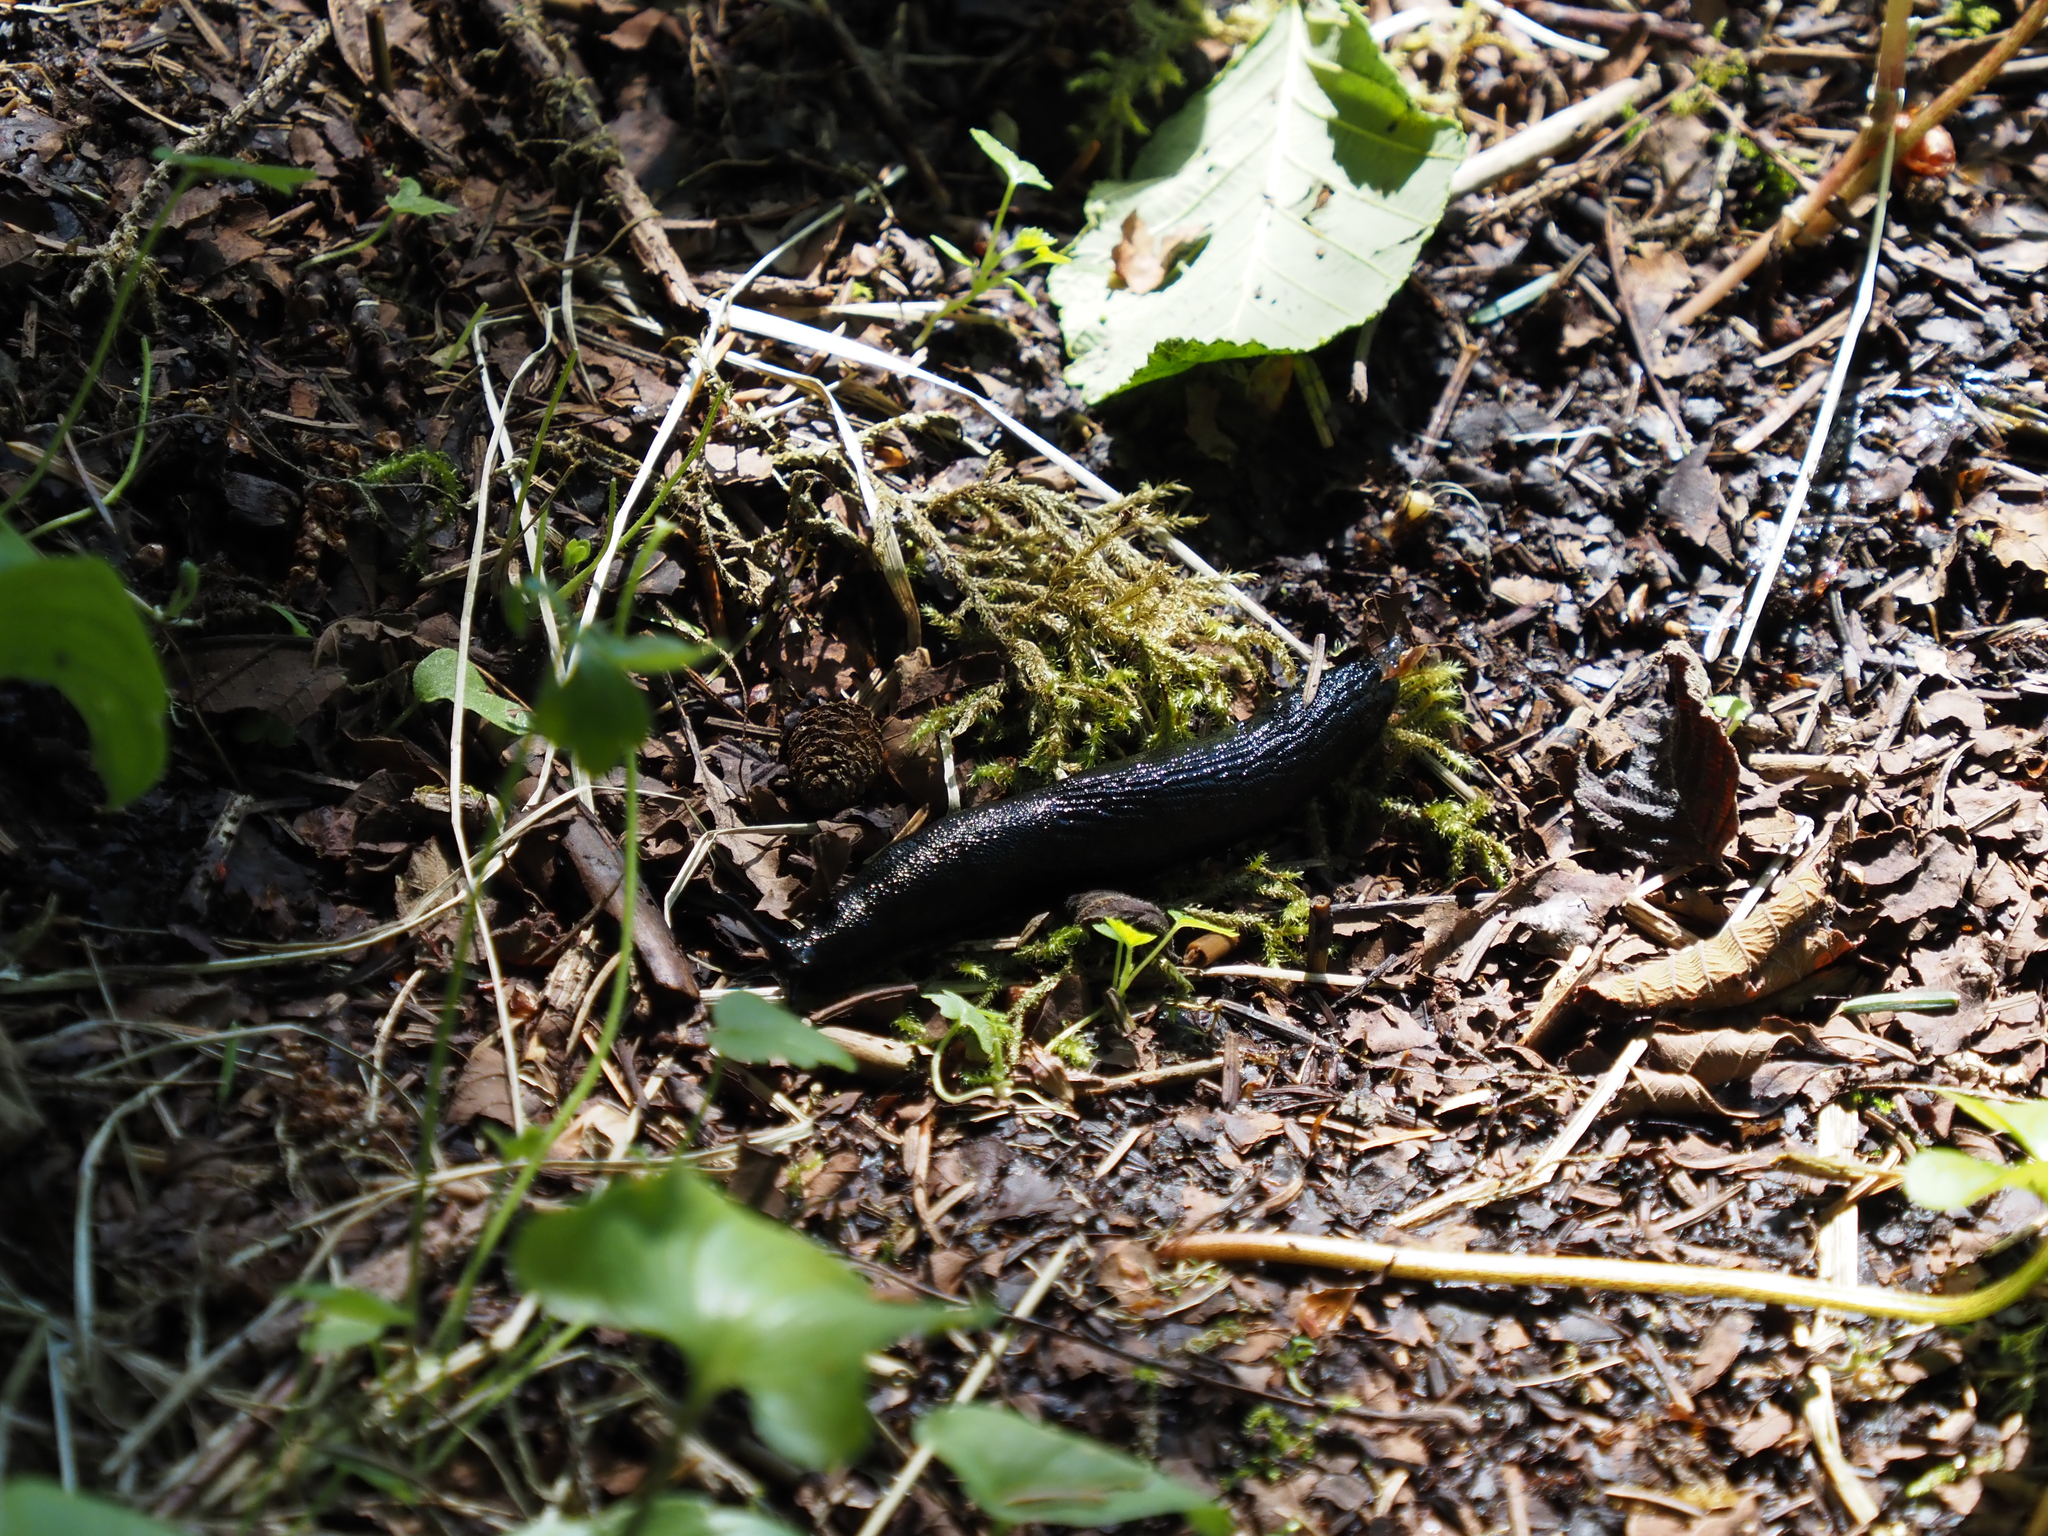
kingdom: Animalia
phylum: Mollusca
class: Gastropoda
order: Stylommatophora
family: Arionidae
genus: Arion
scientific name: Arion
